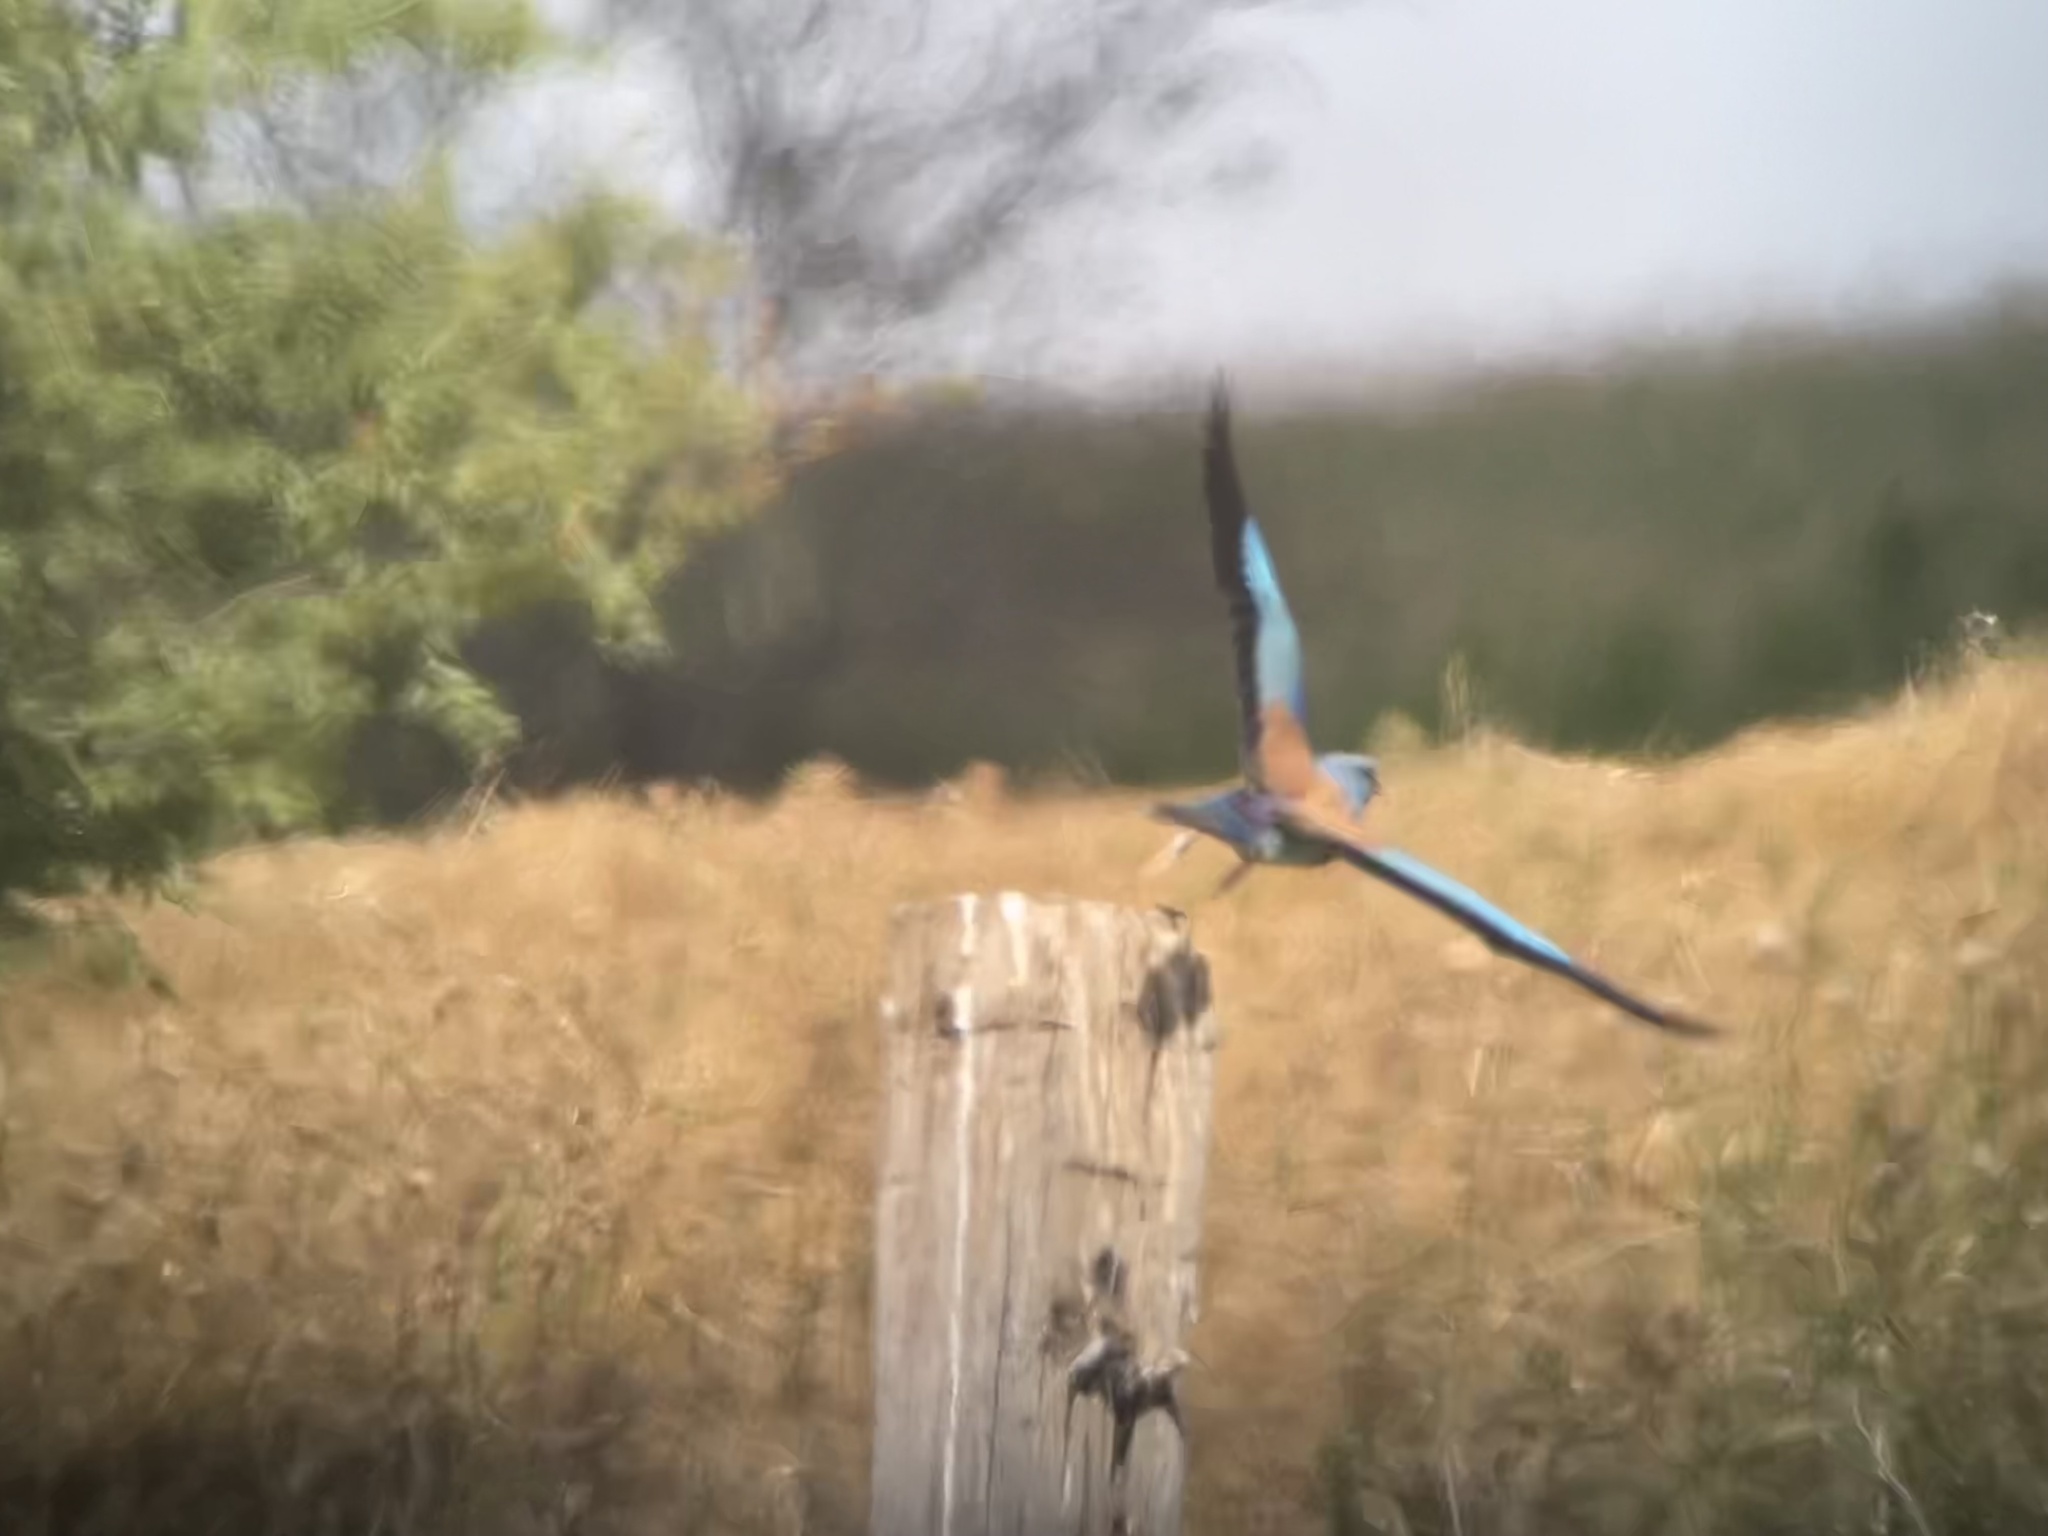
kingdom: Animalia
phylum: Chordata
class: Aves
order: Coraciiformes
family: Coraciidae
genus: Coracias
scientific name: Coracias garrulus
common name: European roller
